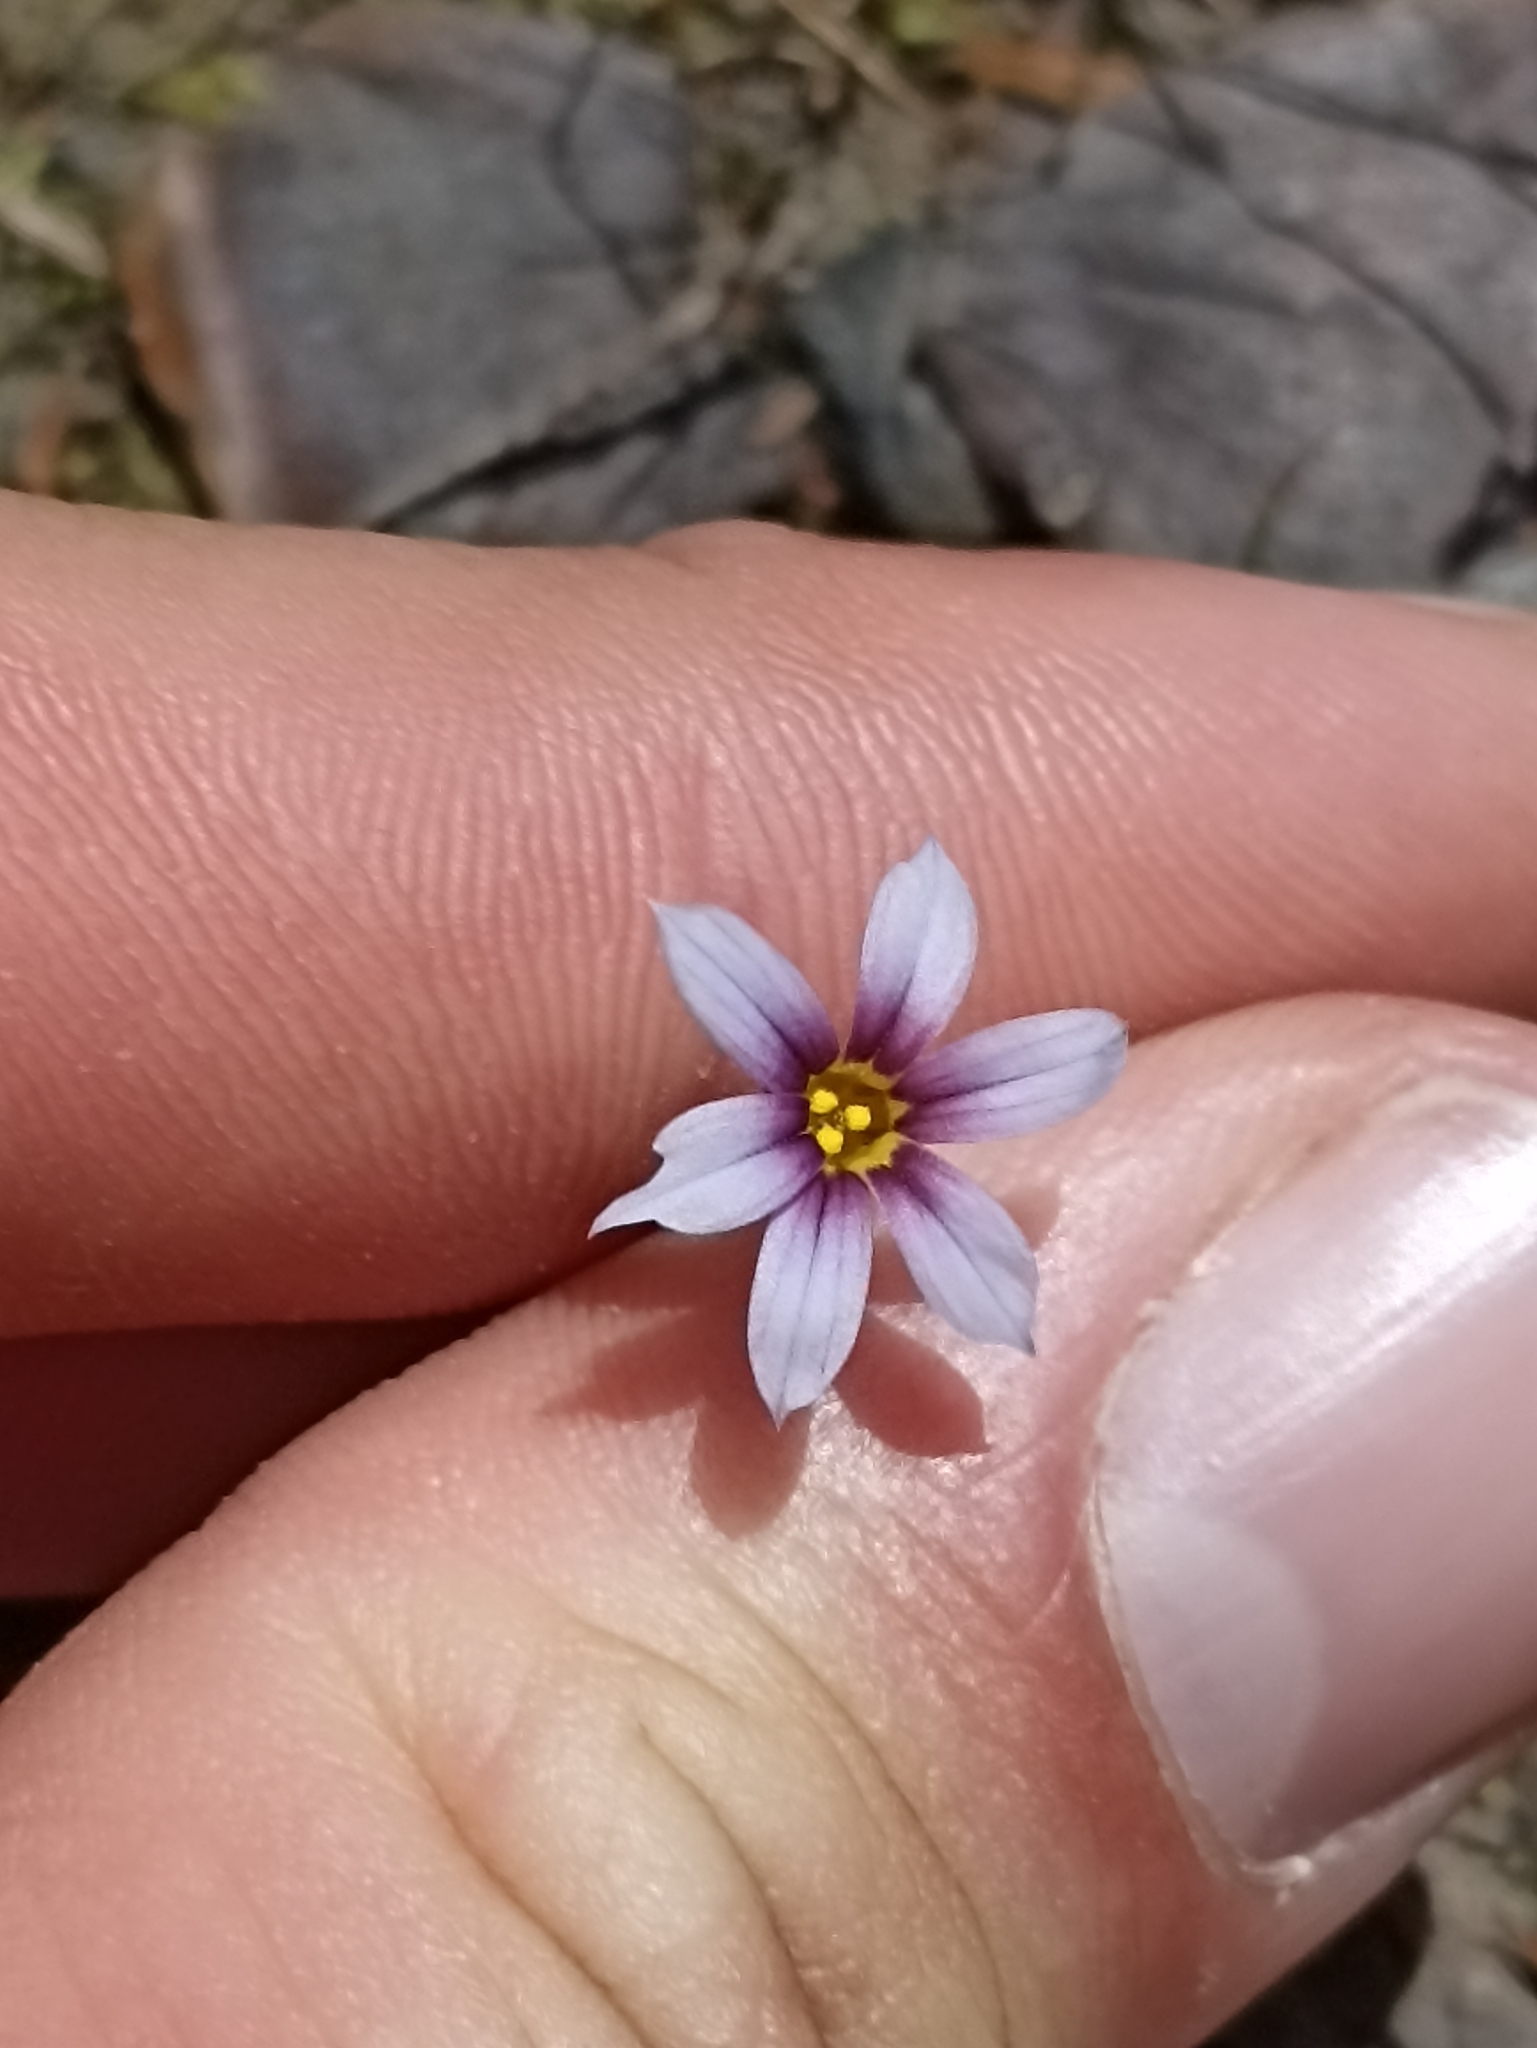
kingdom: Plantae
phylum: Tracheophyta
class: Liliopsida
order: Asparagales
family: Iridaceae
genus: Sisyrinchium
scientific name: Sisyrinchium micranthum
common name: Bermuda pigroot
